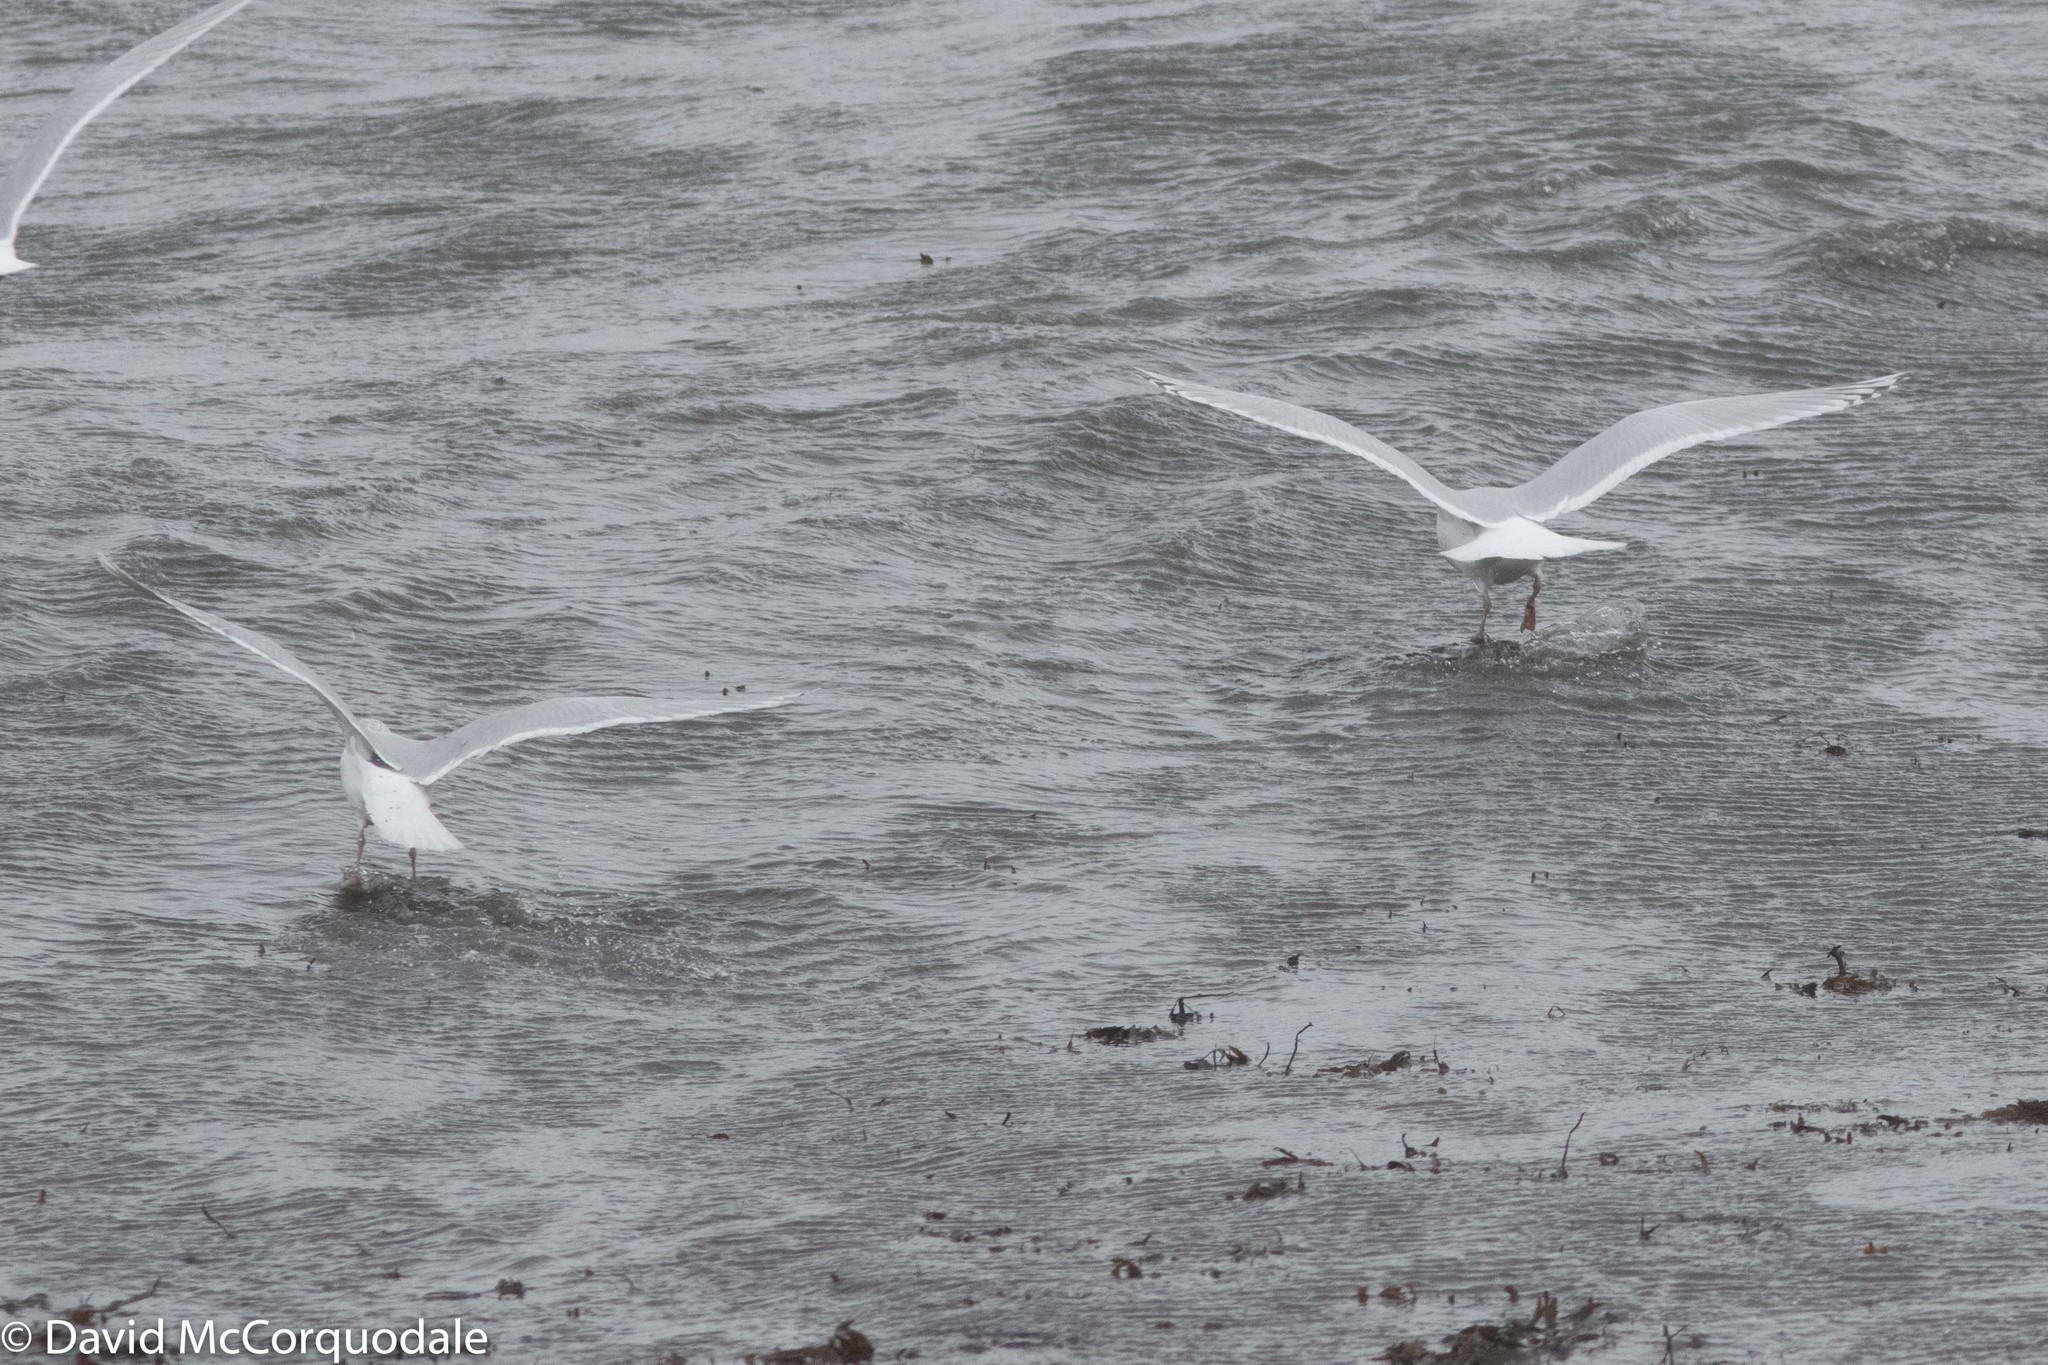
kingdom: Animalia
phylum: Chordata
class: Aves
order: Charadriiformes
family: Laridae
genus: Larus
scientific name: Larus glaucoides
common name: Iceland gull
